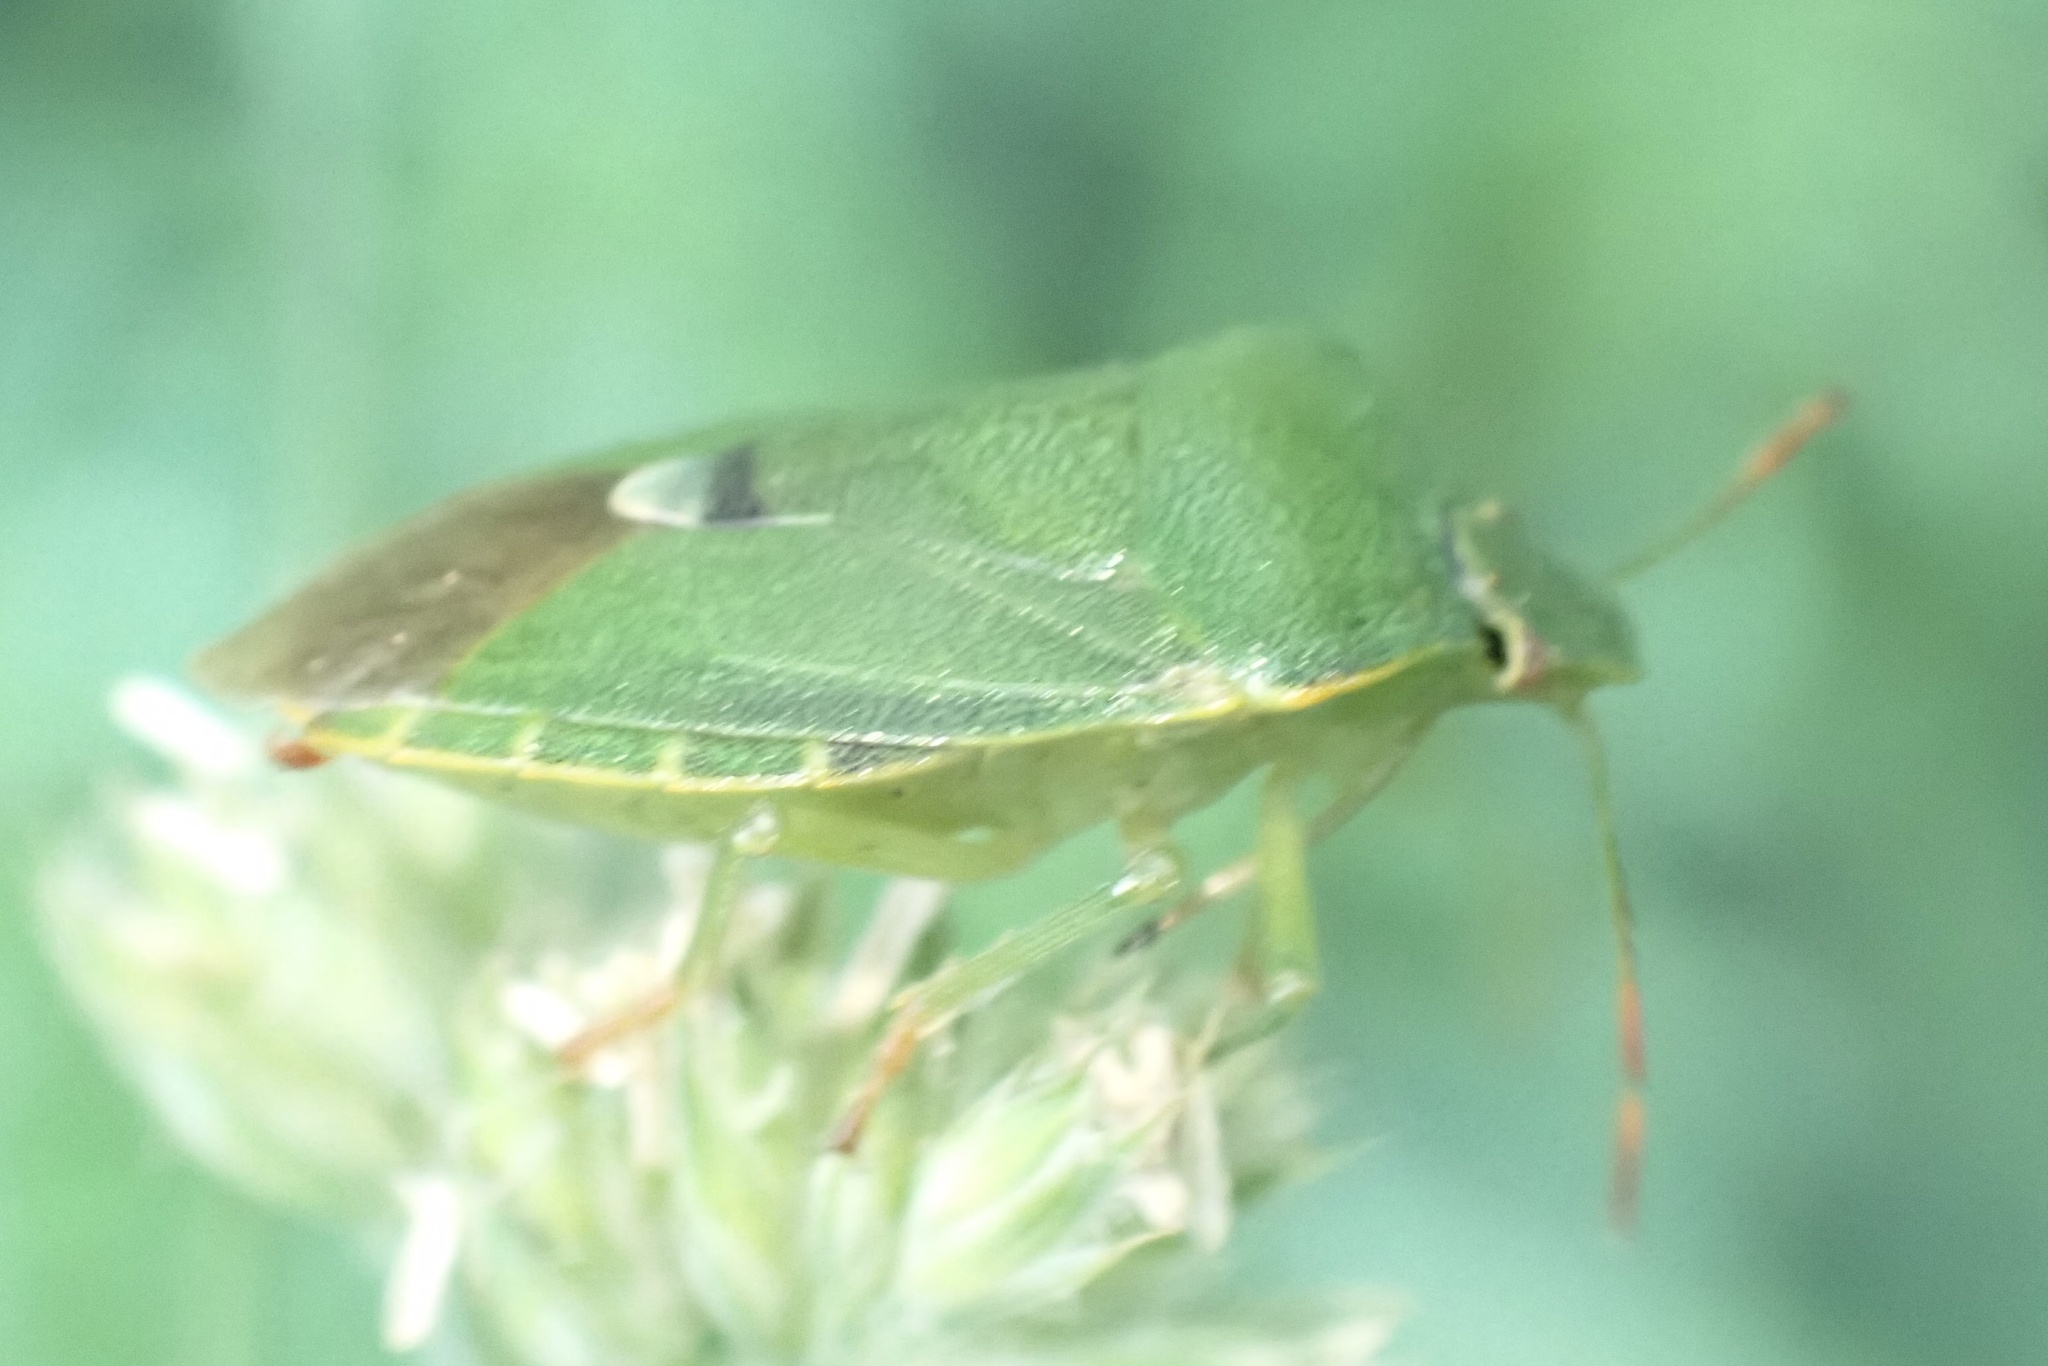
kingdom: Animalia
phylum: Arthropoda
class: Insecta
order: Hemiptera
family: Pentatomidae
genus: Palomena
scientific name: Palomena prasina
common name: Green shieldbug
